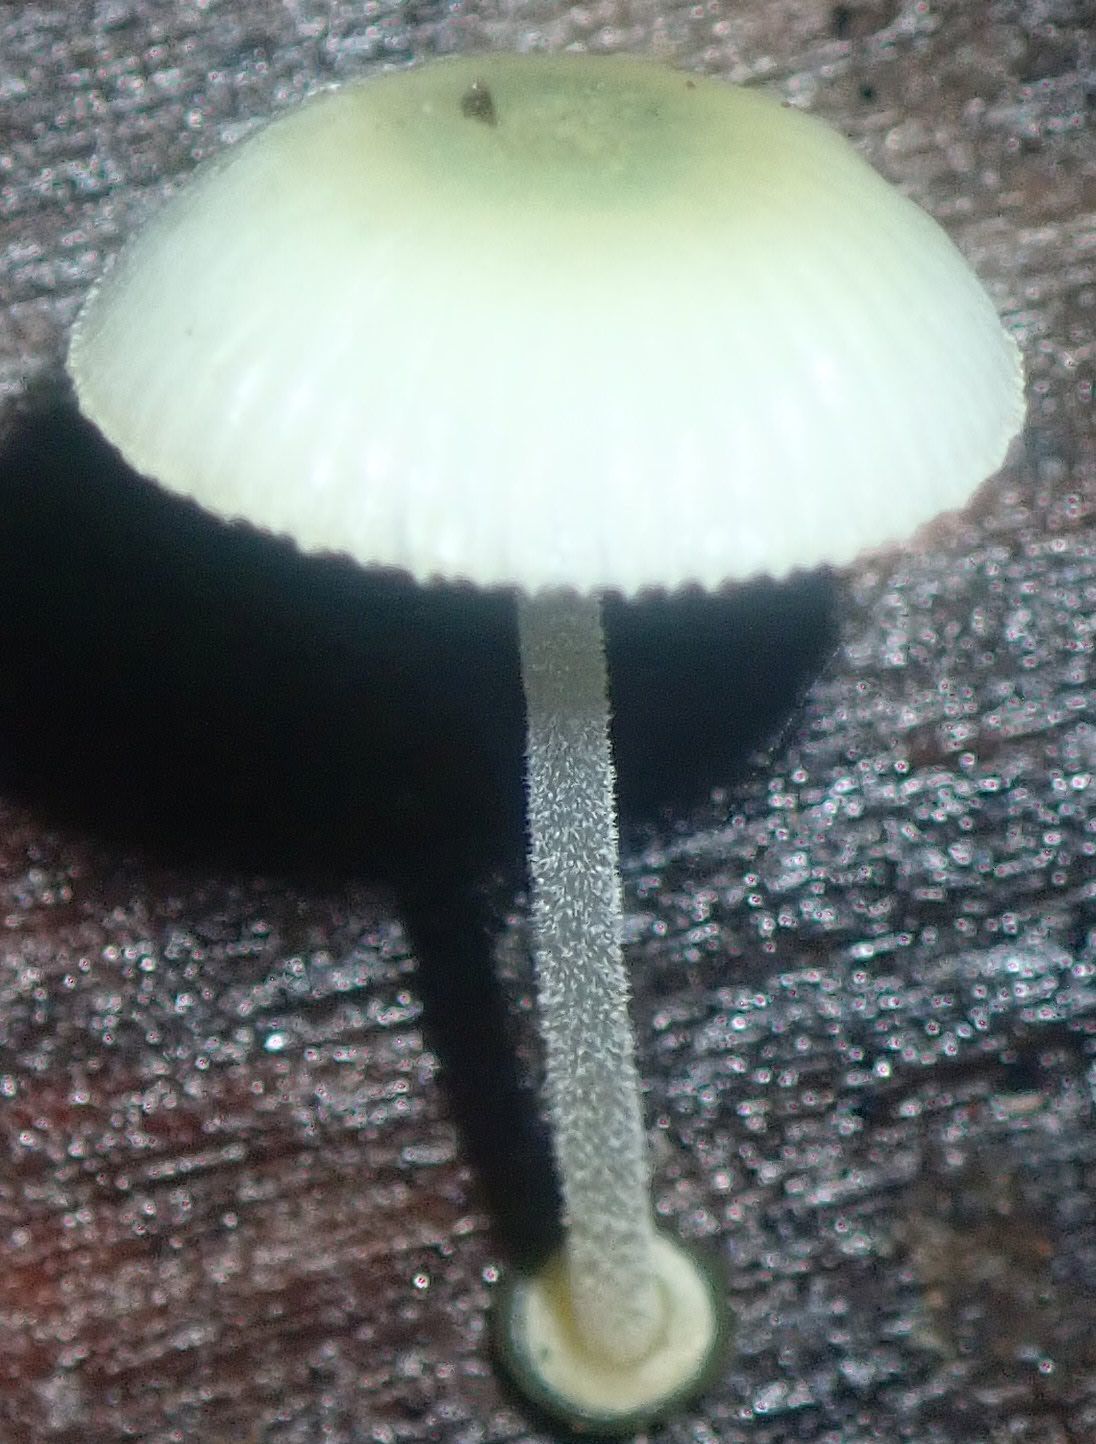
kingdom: Fungi
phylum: Basidiomycota
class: Agaricomycetes
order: Agaricales
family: Mycenaceae
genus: Mycena
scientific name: Mycena interrupta
